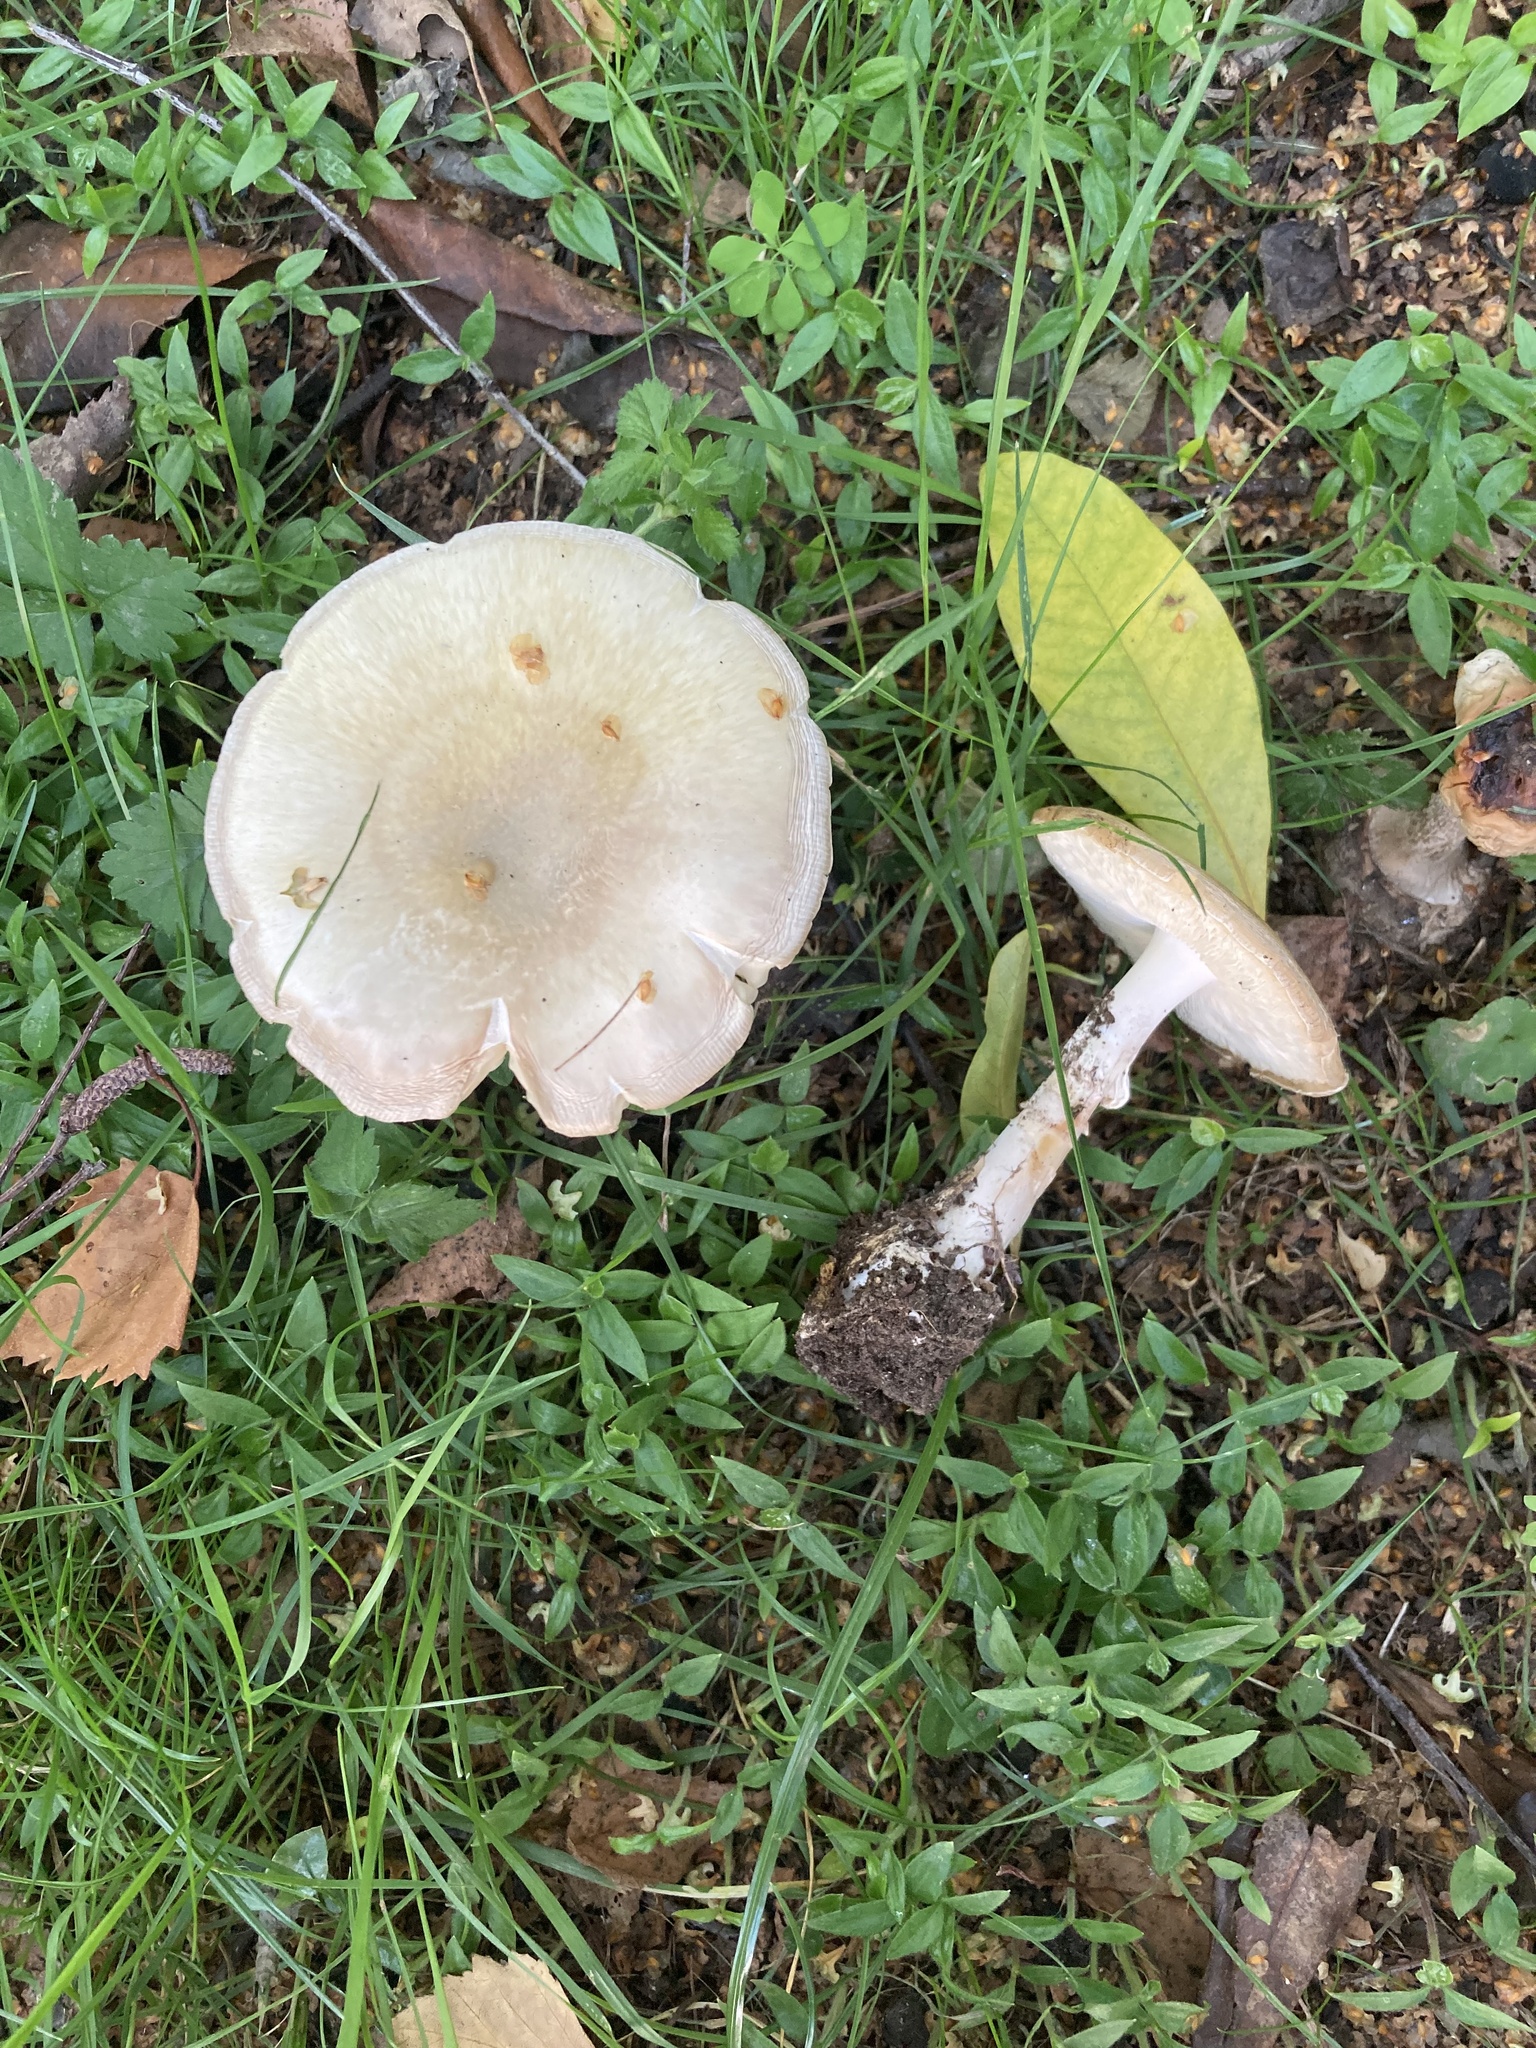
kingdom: Fungi
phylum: Basidiomycota
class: Agaricomycetes
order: Agaricales
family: Amanitaceae
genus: Amanita
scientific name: Amanita phalloides
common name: Death cap
